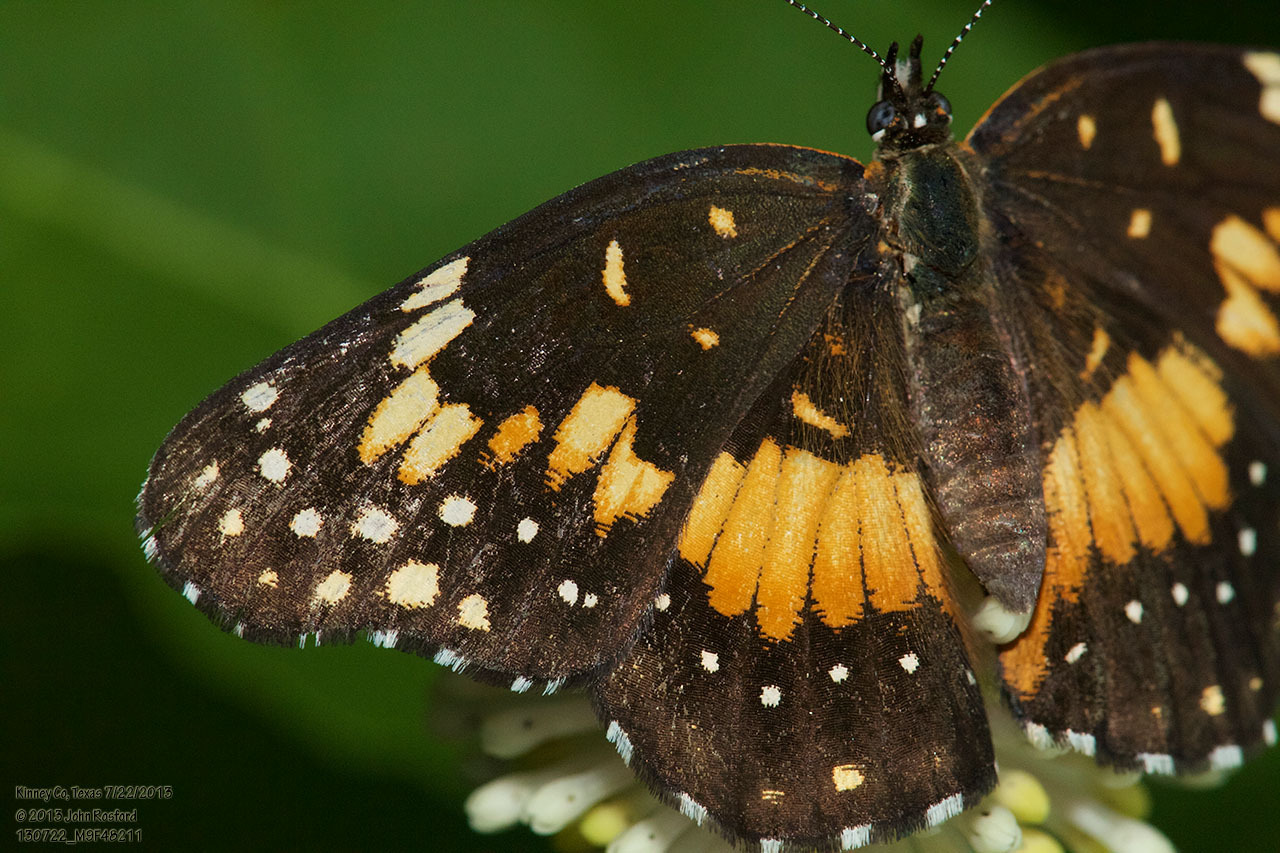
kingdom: Animalia
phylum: Arthropoda
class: Insecta
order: Lepidoptera
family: Nymphalidae
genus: Chlosyne
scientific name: Chlosyne lacinia
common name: Bordered patch
